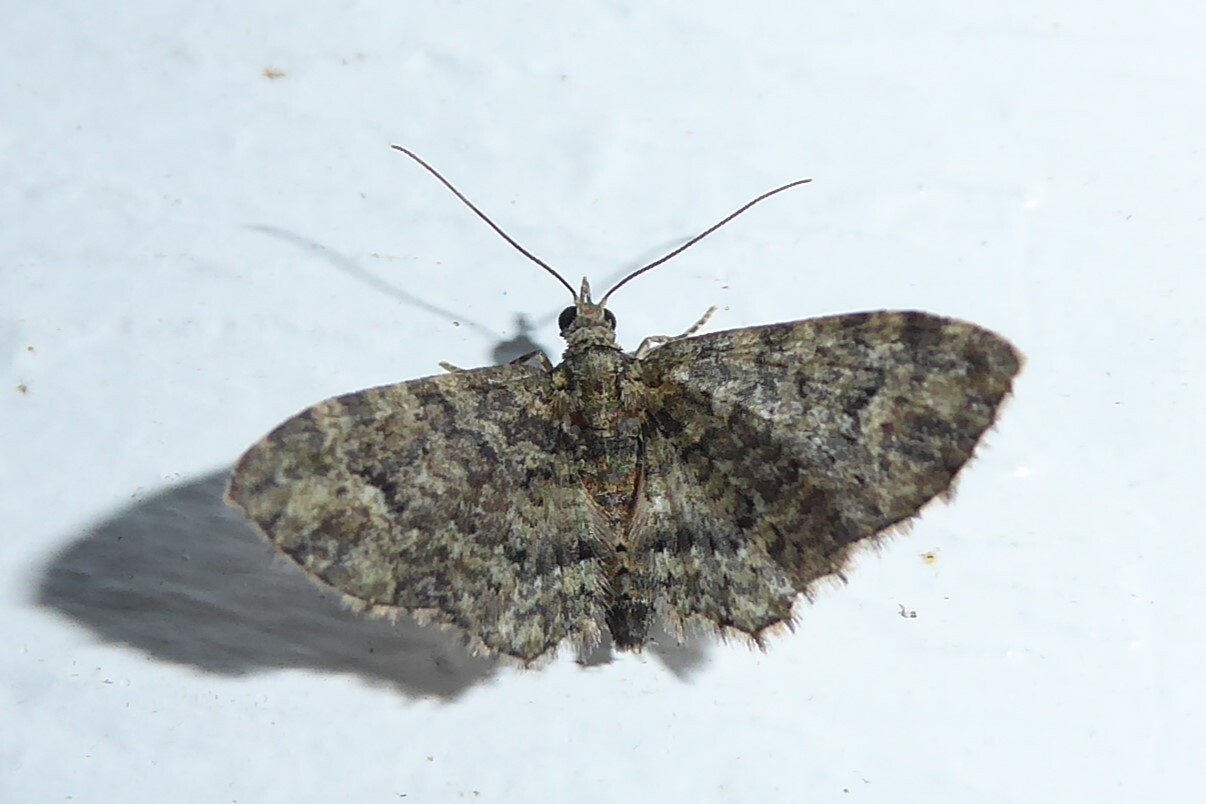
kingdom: Animalia
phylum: Arthropoda
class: Insecta
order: Lepidoptera
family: Geometridae
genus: Pasiphilodes
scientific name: Pasiphilodes testulata
